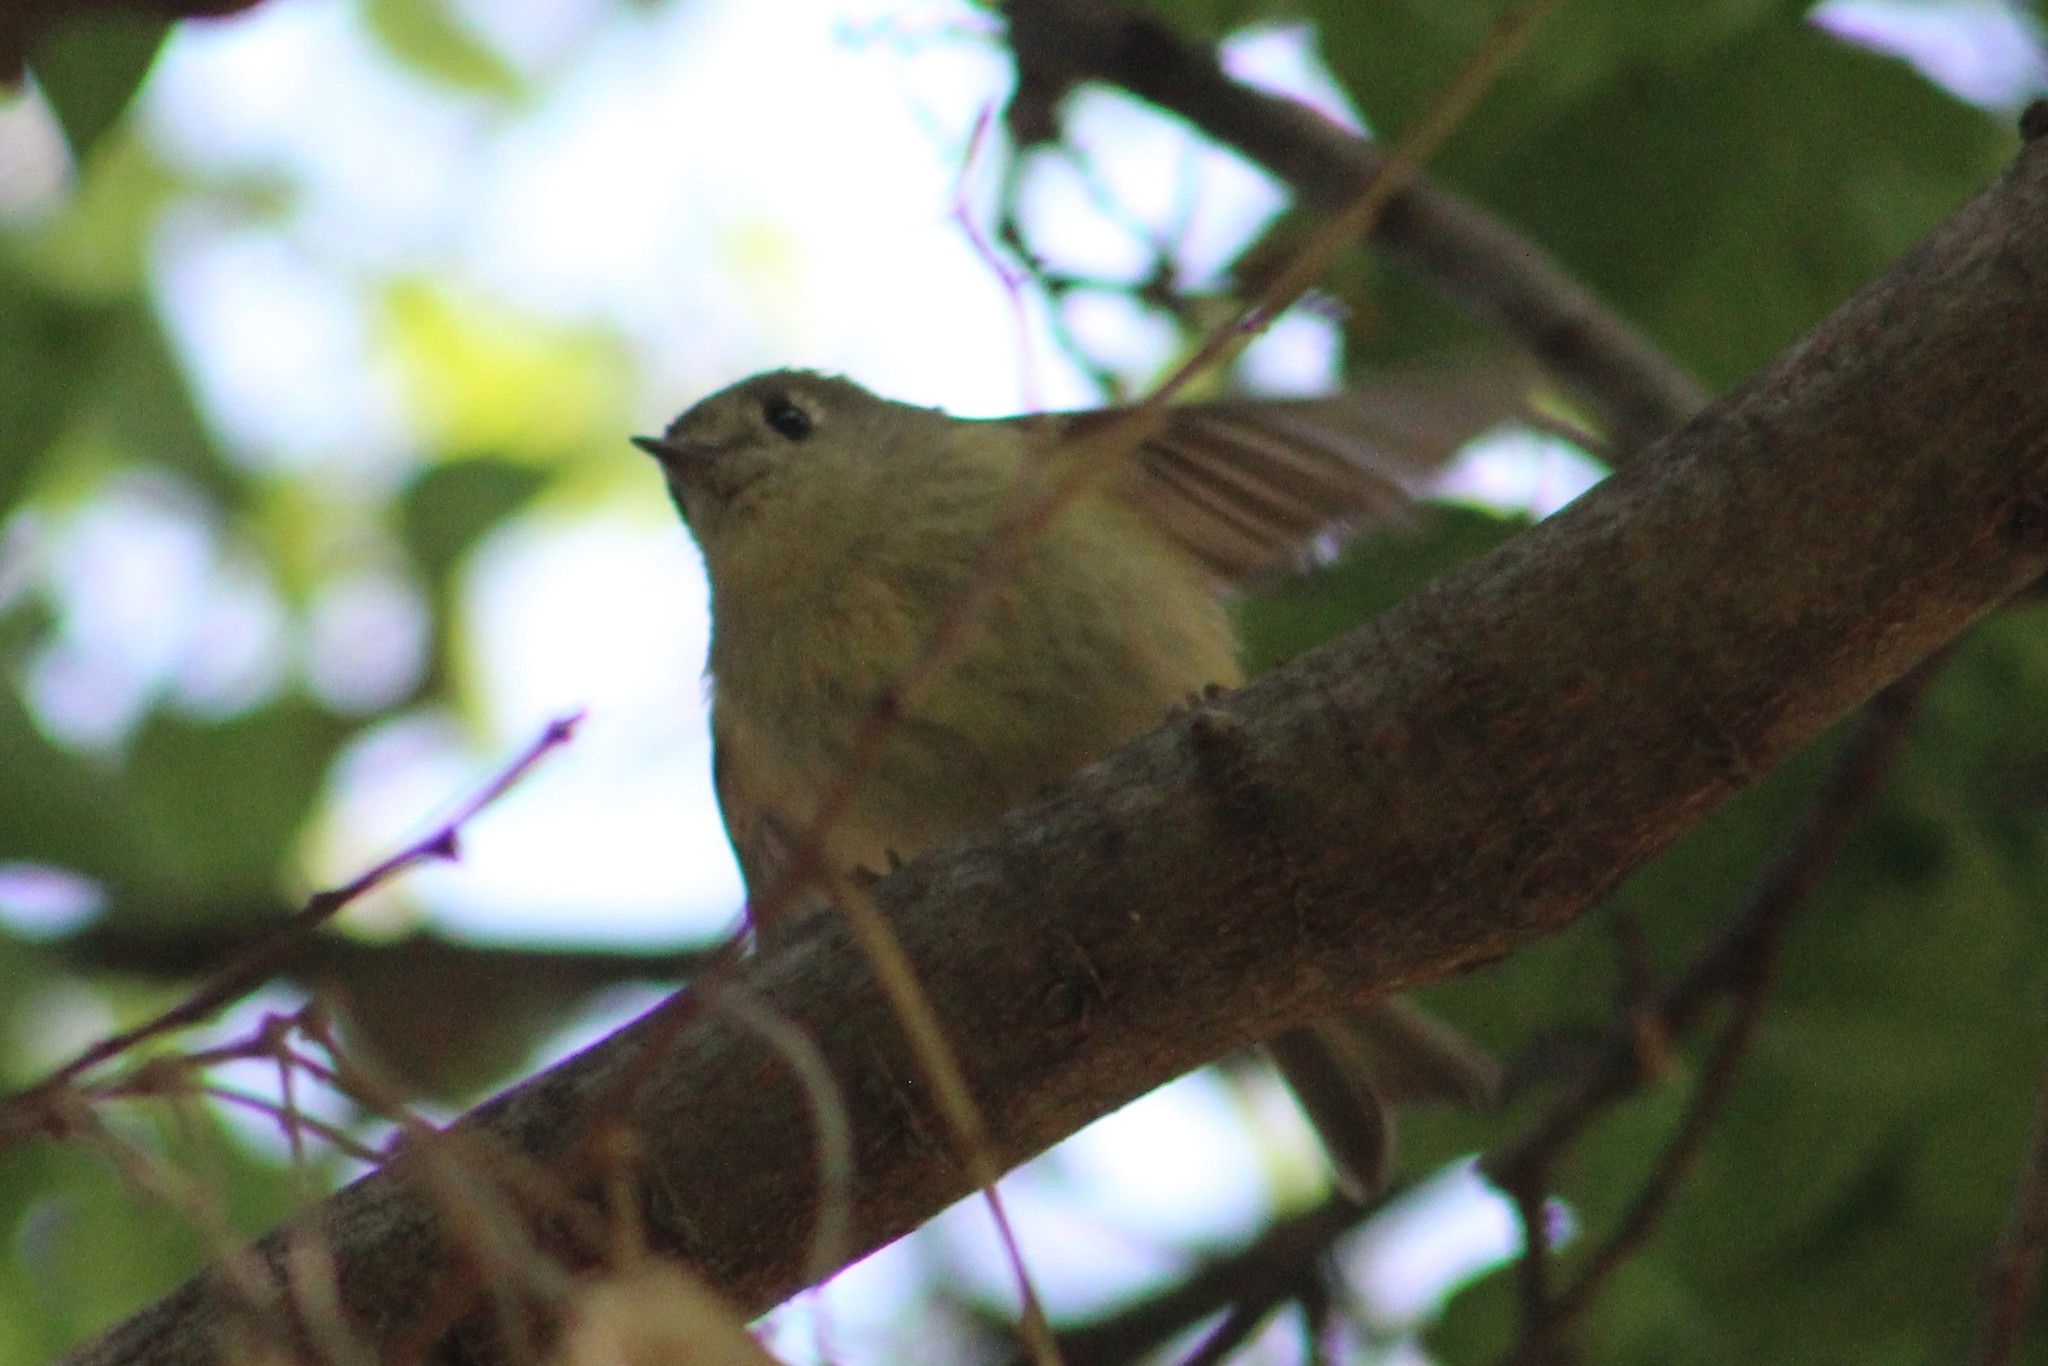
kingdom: Animalia
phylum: Chordata
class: Aves
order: Passeriformes
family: Regulidae
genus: Regulus
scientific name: Regulus calendula
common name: Ruby-crowned kinglet
